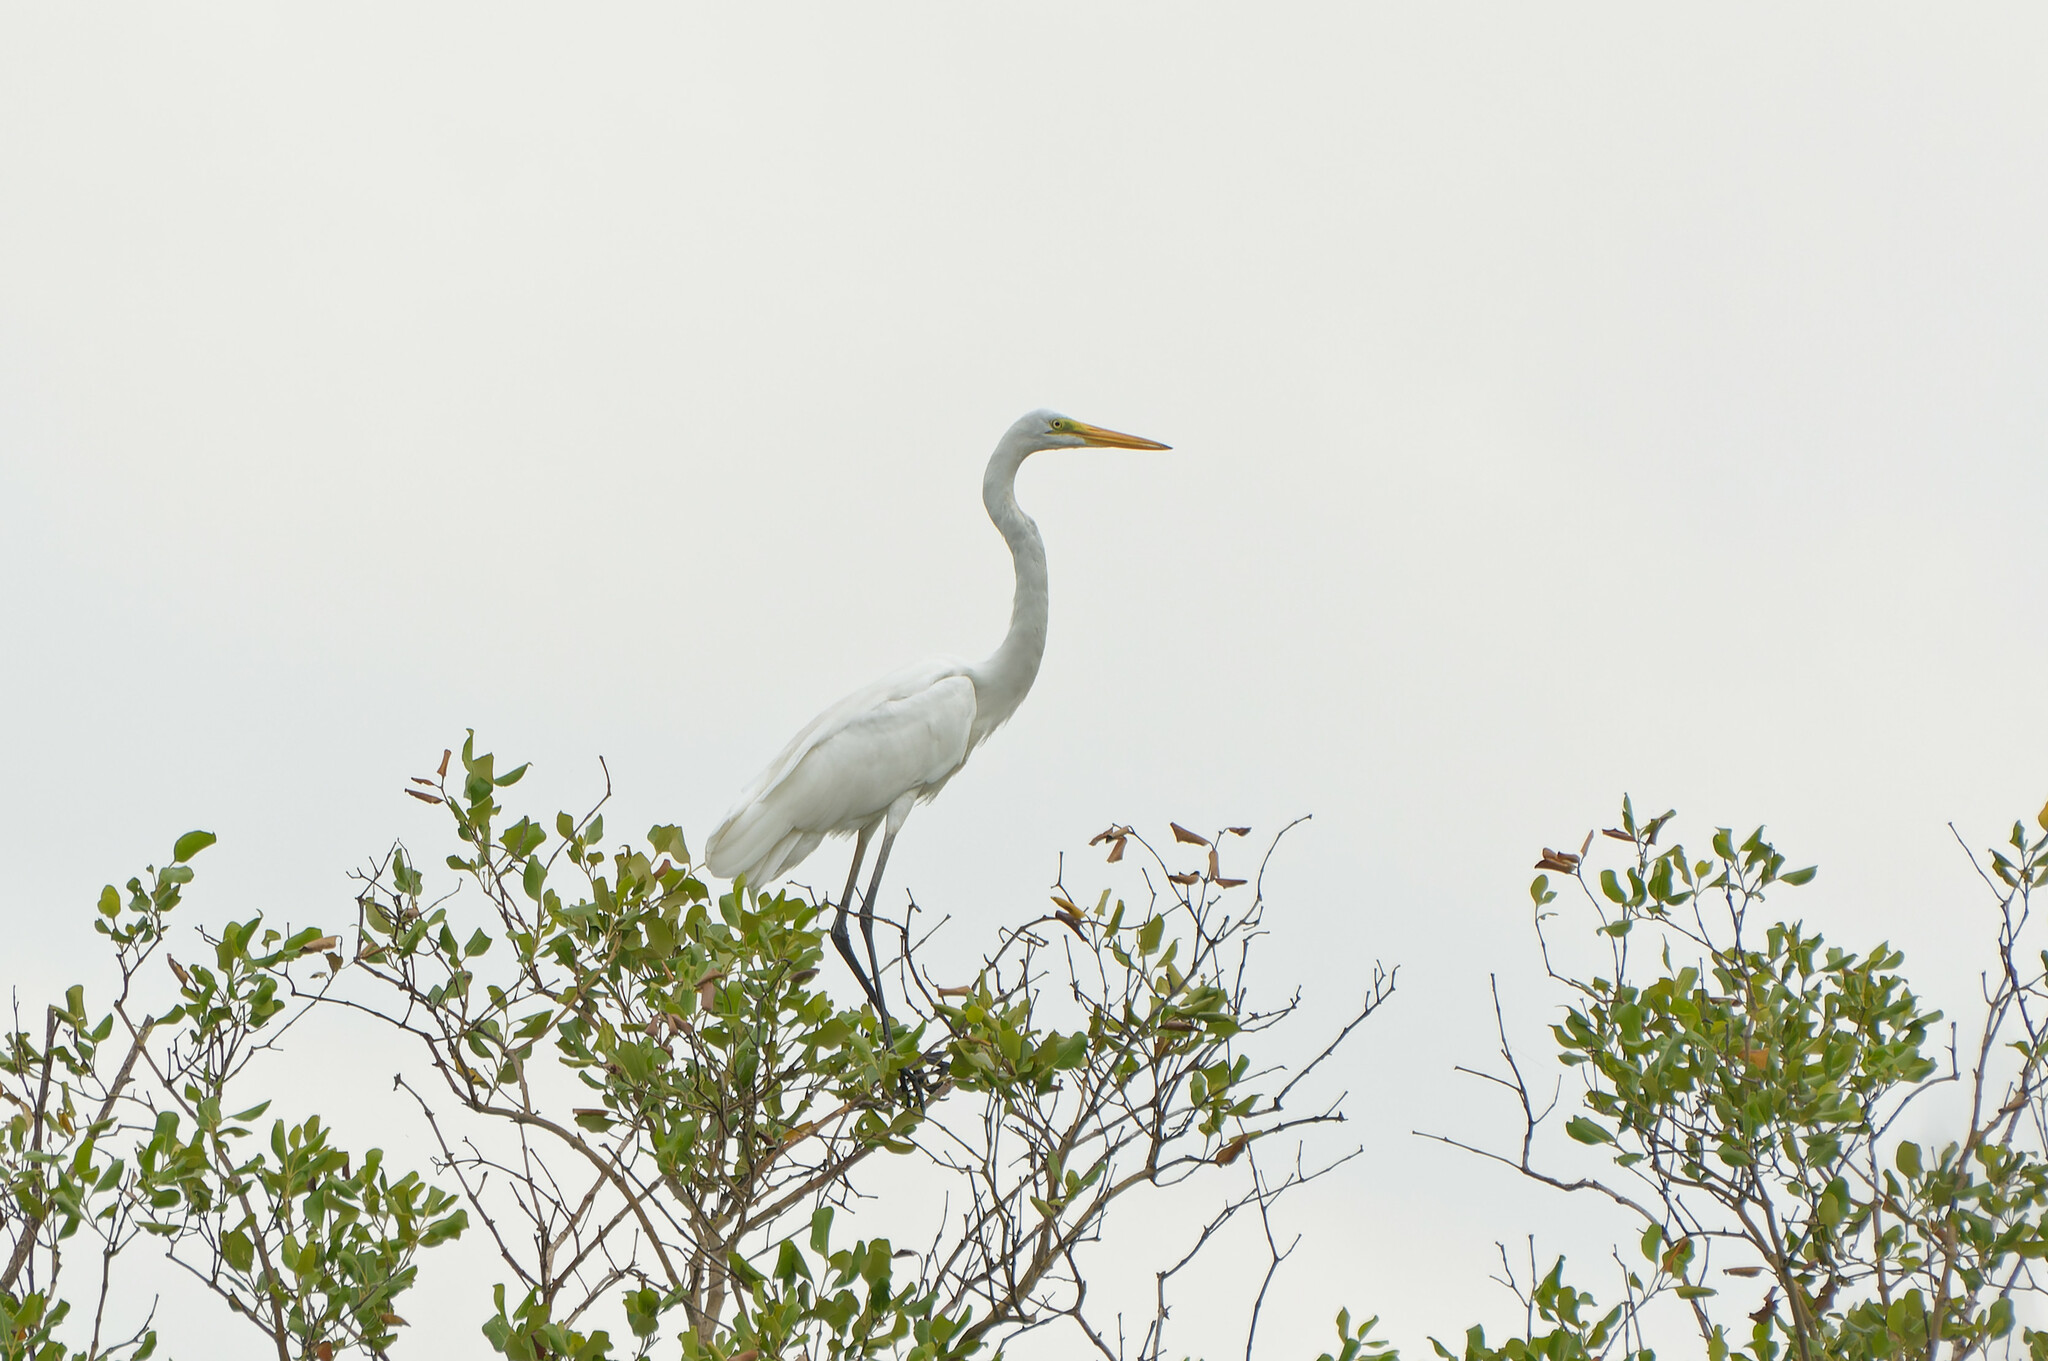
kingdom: Animalia
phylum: Chordata
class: Aves
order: Pelecaniformes
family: Ardeidae
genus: Ardea
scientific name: Ardea modesta
